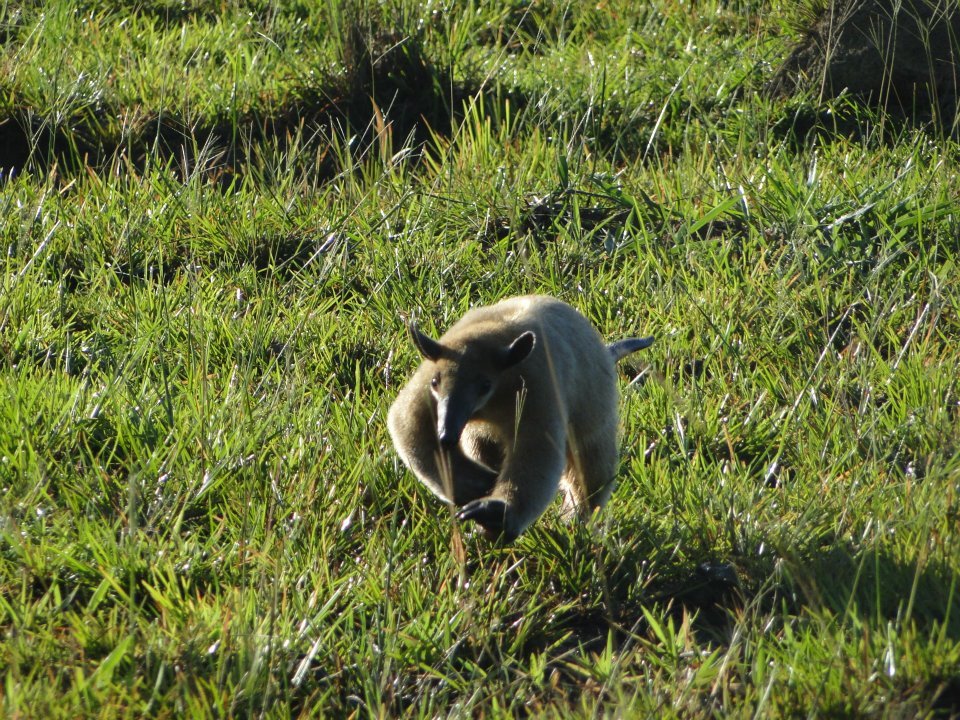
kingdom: Animalia
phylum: Chordata
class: Mammalia
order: Pilosa
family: Myrmecophagidae
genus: Tamandua
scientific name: Tamandua tetradactyla
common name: Southern tamandua
